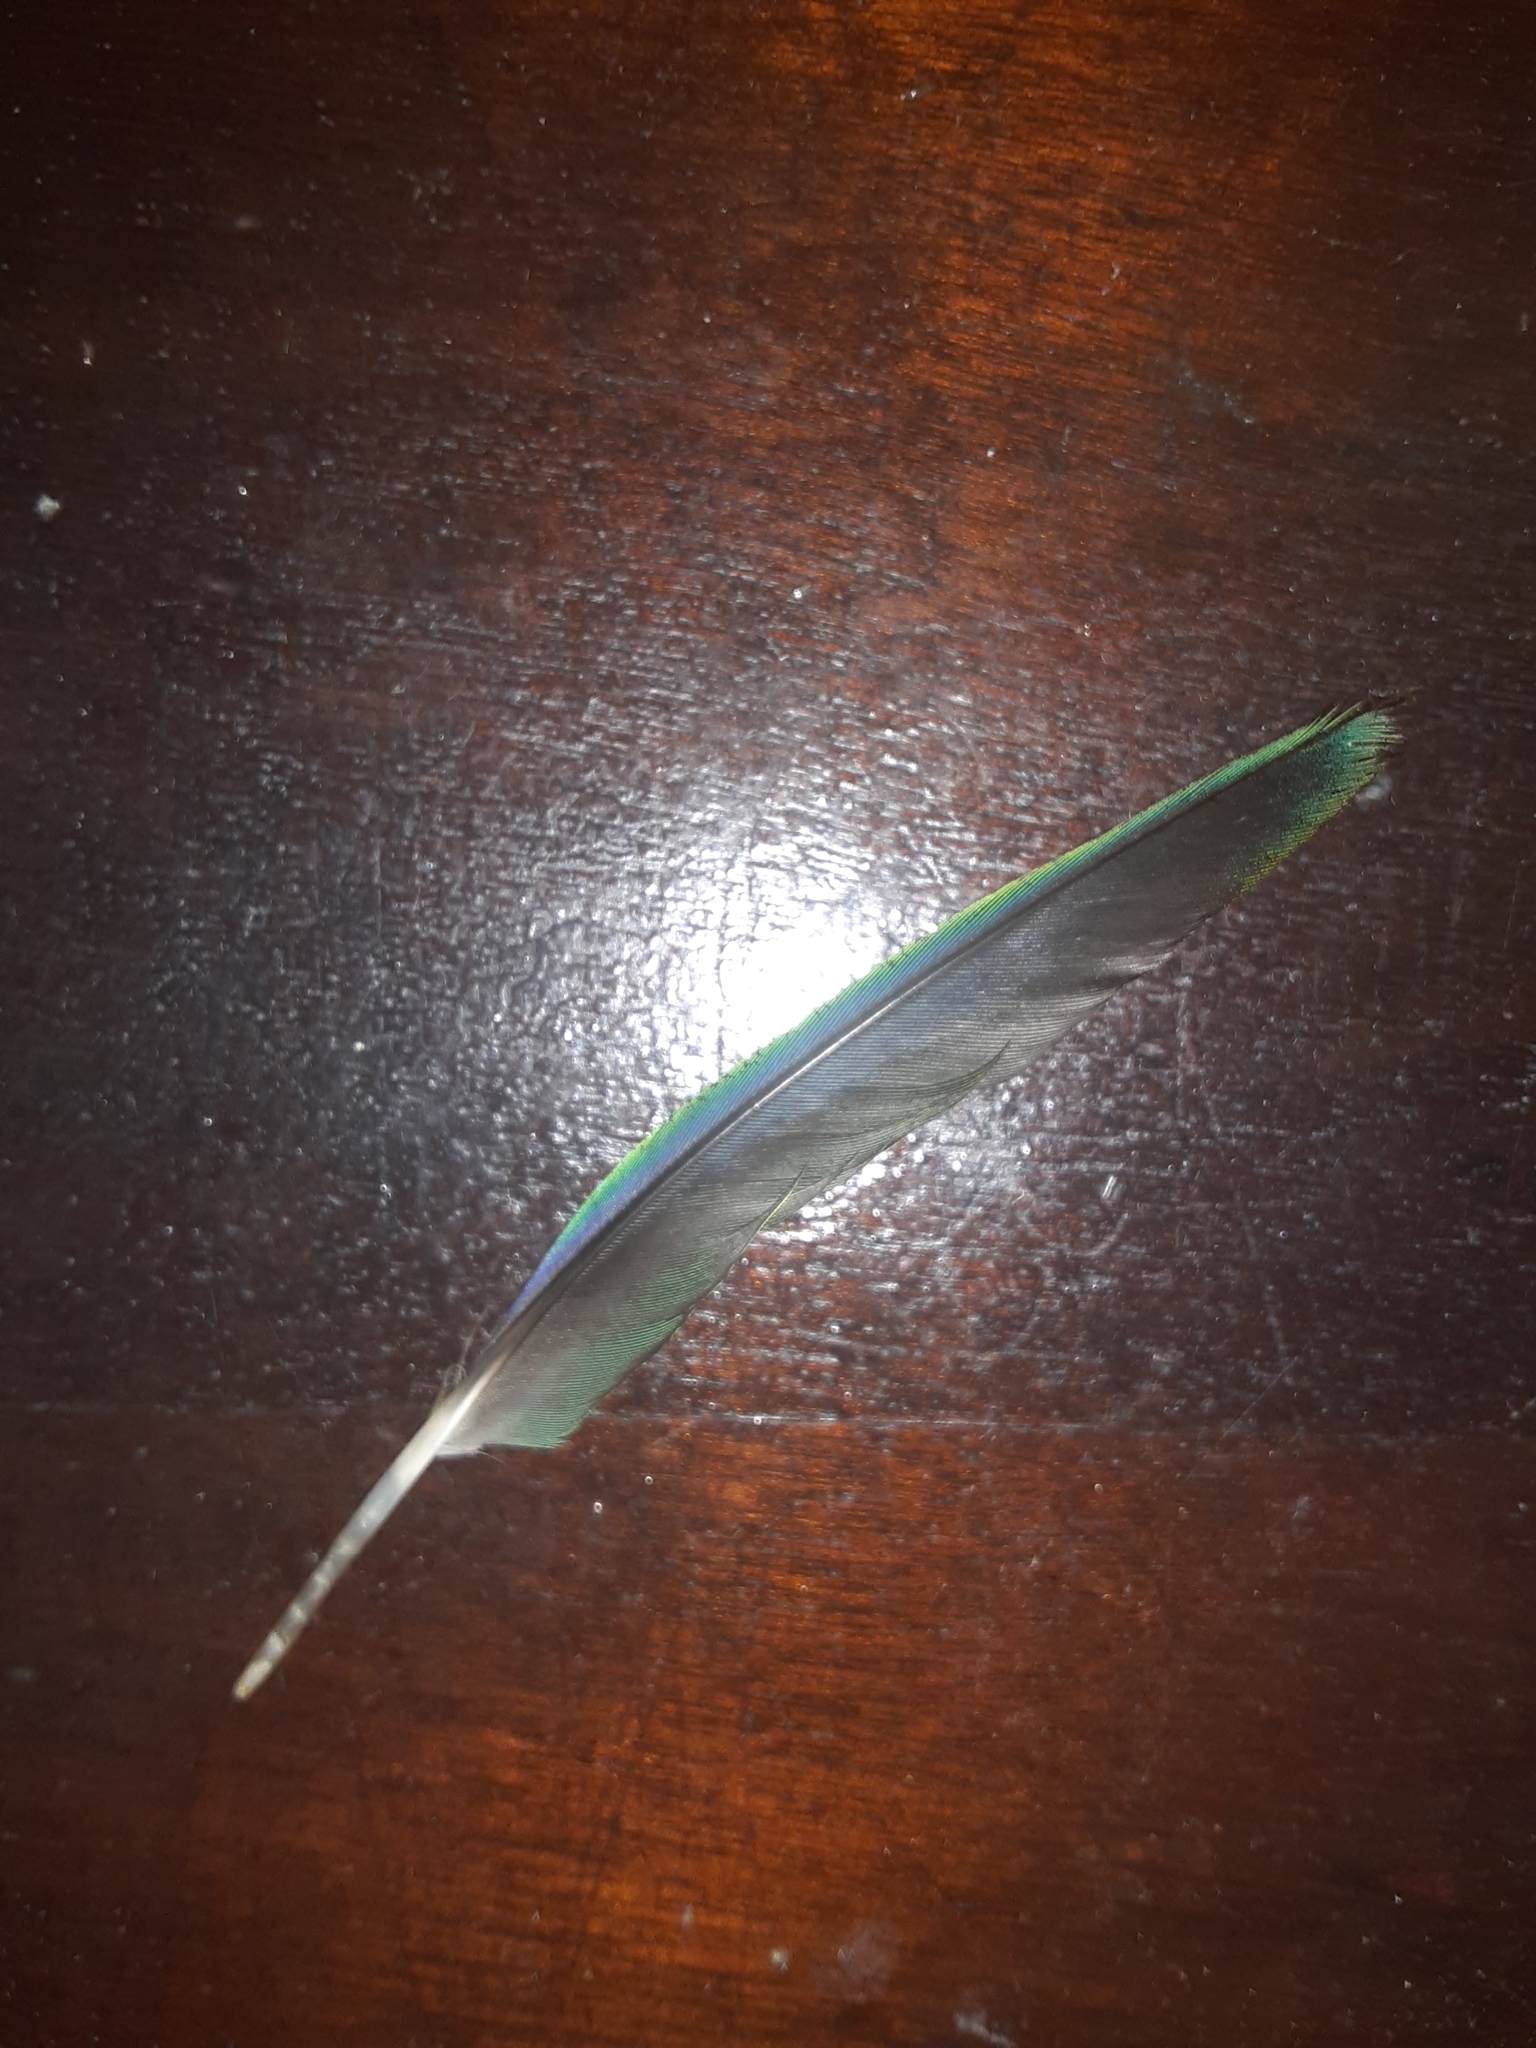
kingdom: Animalia
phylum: Chordata
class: Aves
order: Psittaciformes
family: Psittacidae
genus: Brotogeris
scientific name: Brotogeris tirica
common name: Plain parakeet
